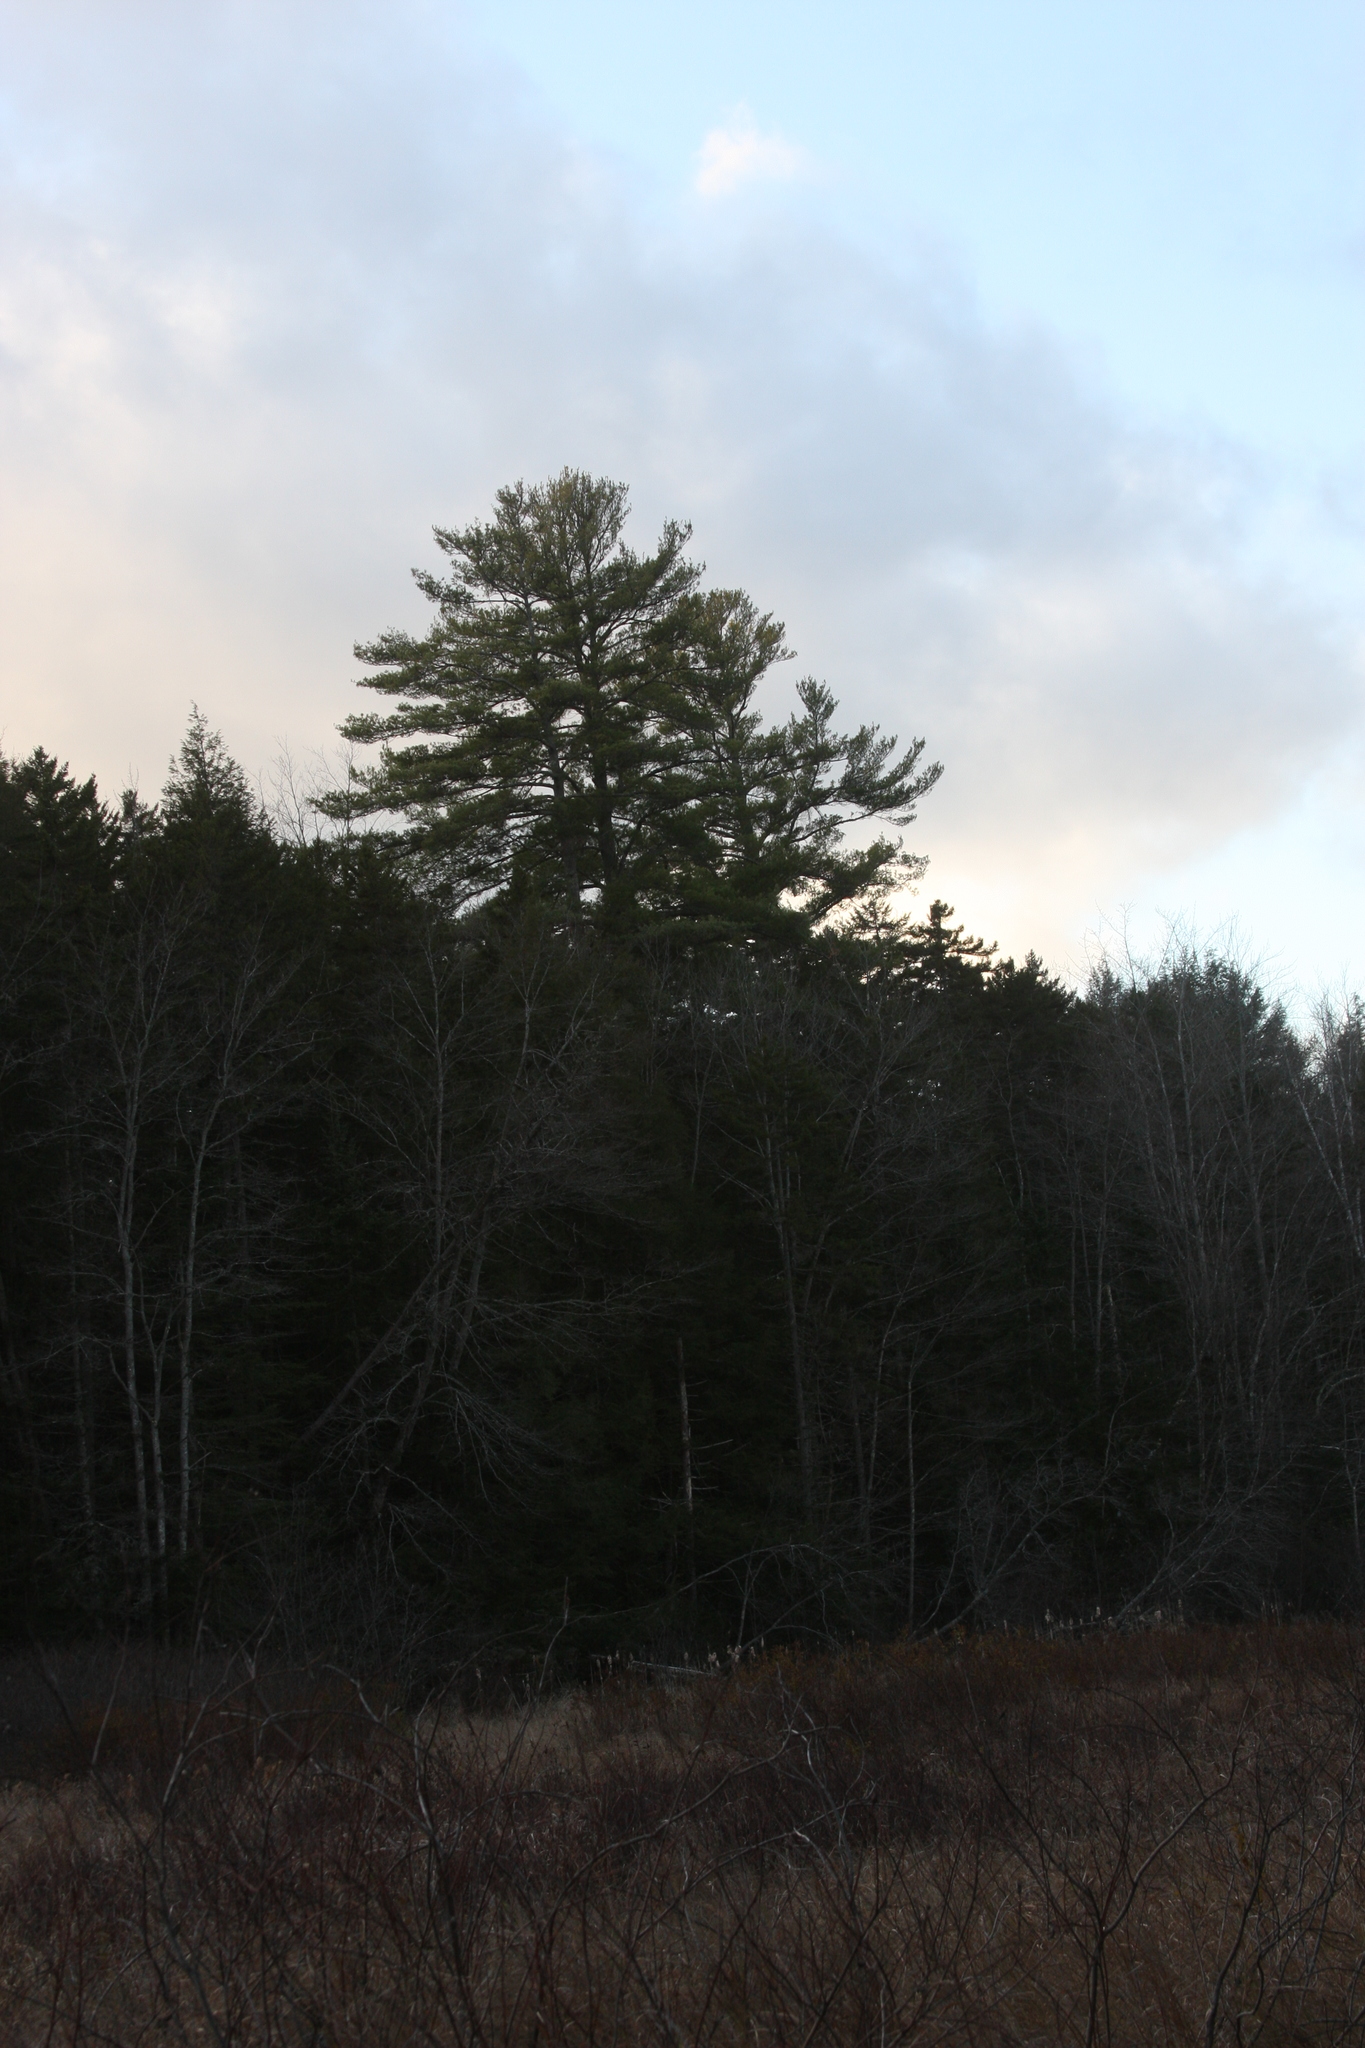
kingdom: Plantae
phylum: Tracheophyta
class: Pinopsida
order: Pinales
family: Pinaceae
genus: Pinus
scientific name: Pinus strobus
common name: Weymouth pine
